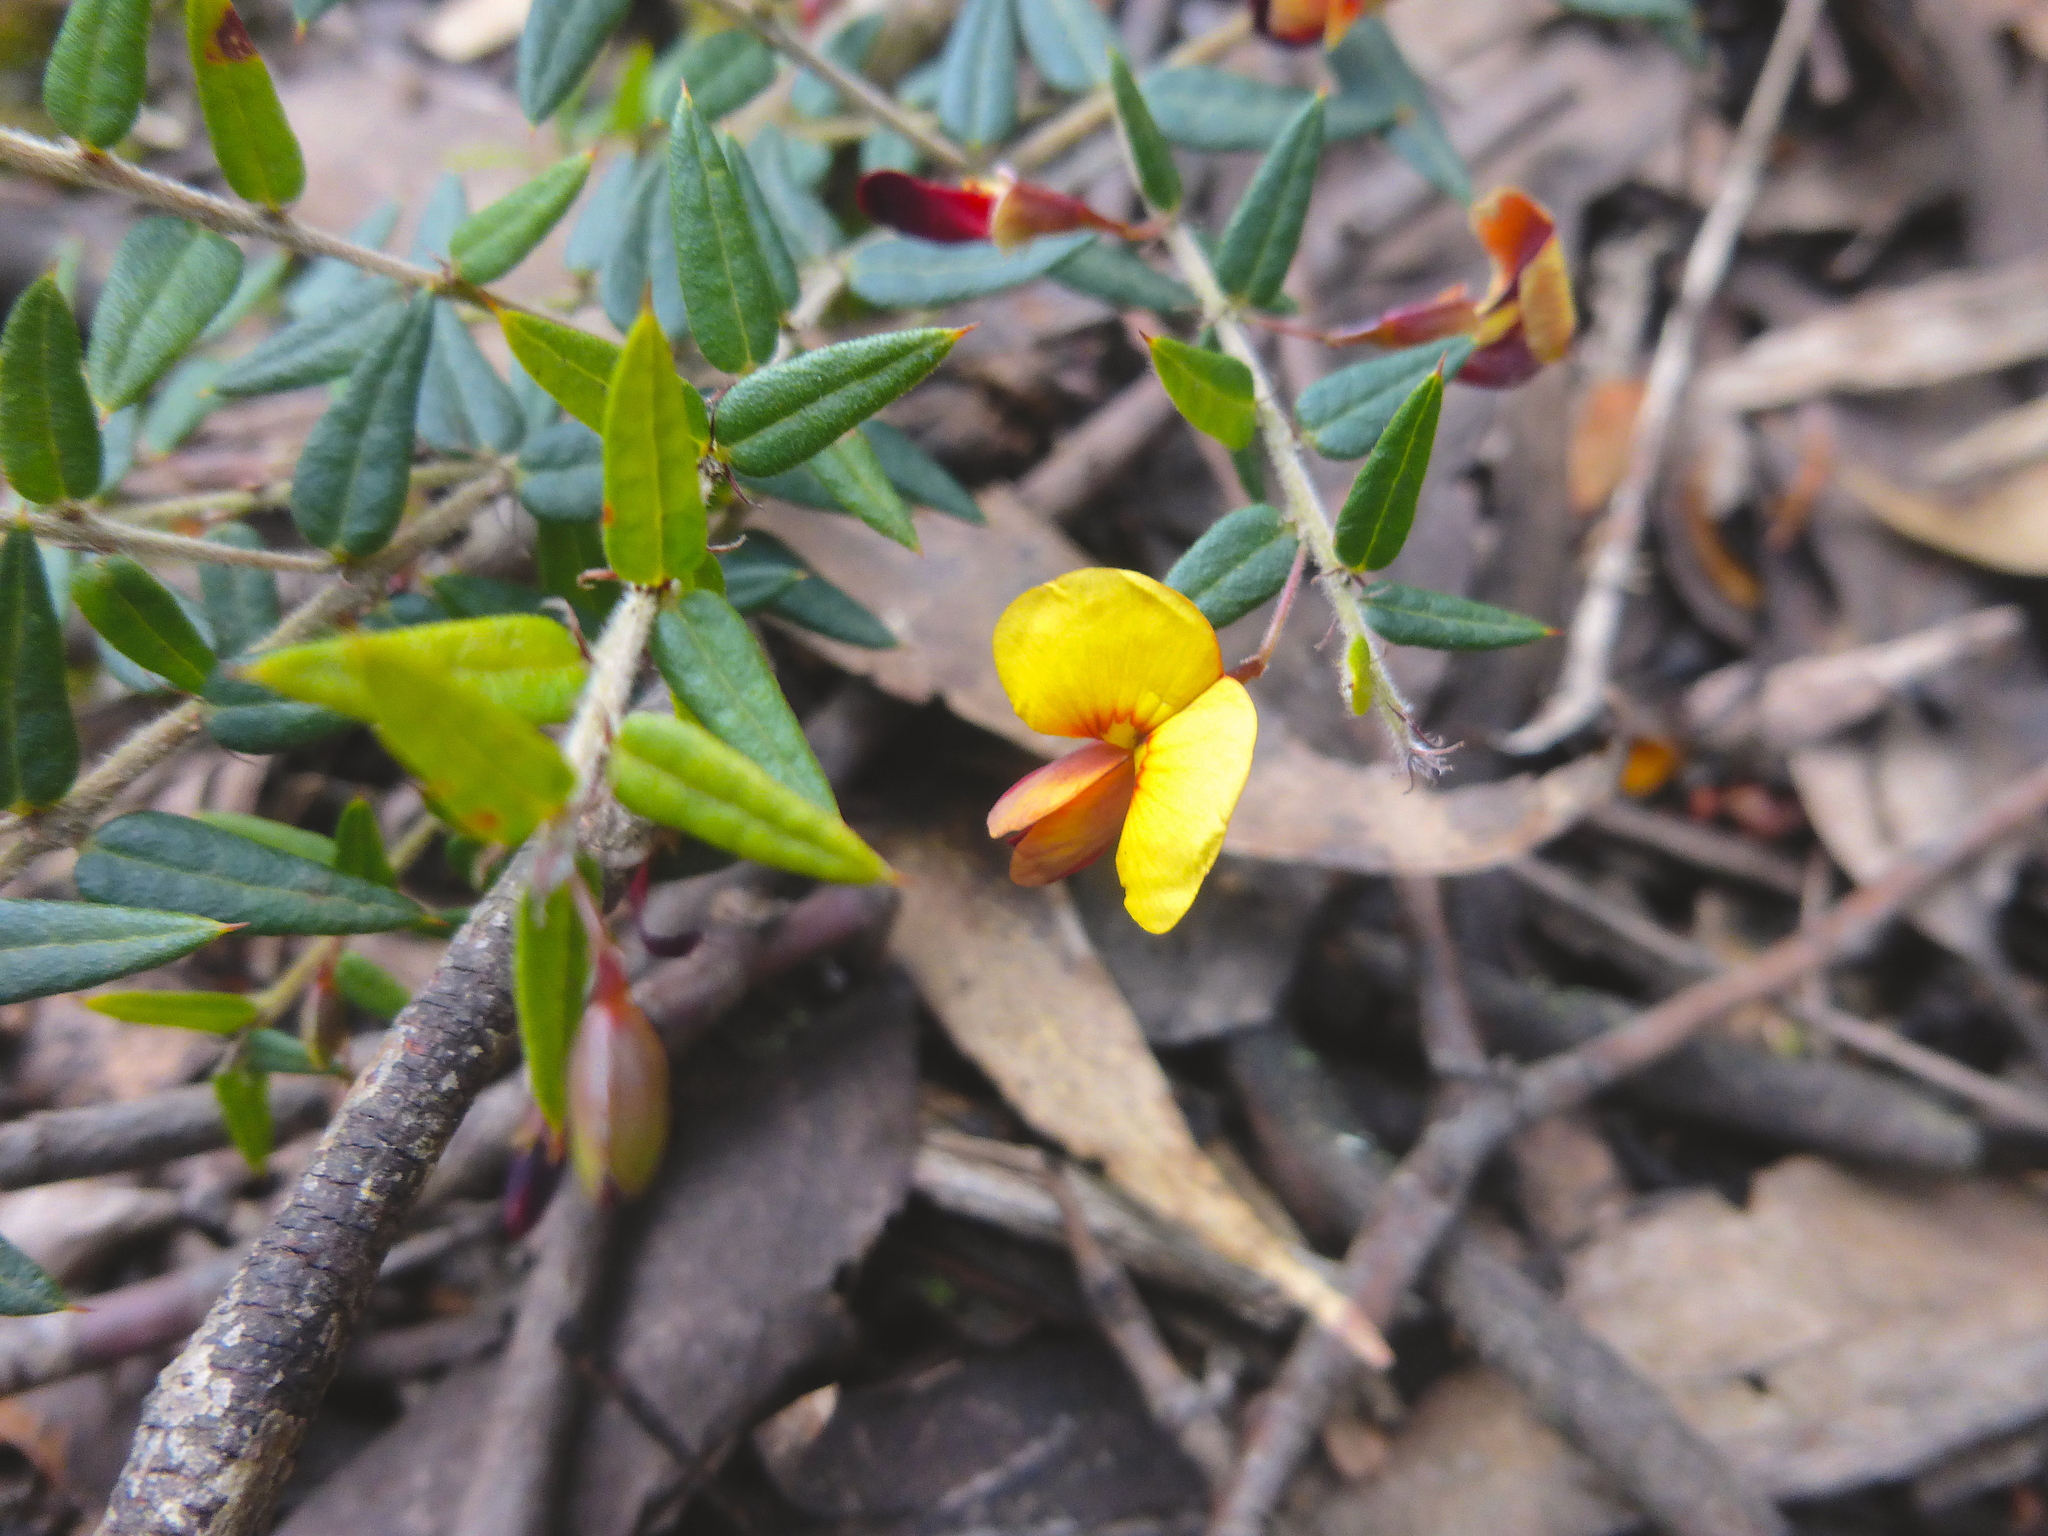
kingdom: Plantae
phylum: Tracheophyta
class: Magnoliopsida
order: Fabales
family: Fabaceae
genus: Bossiaea
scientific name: Bossiaea cinerea
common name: Showy bossiaea
